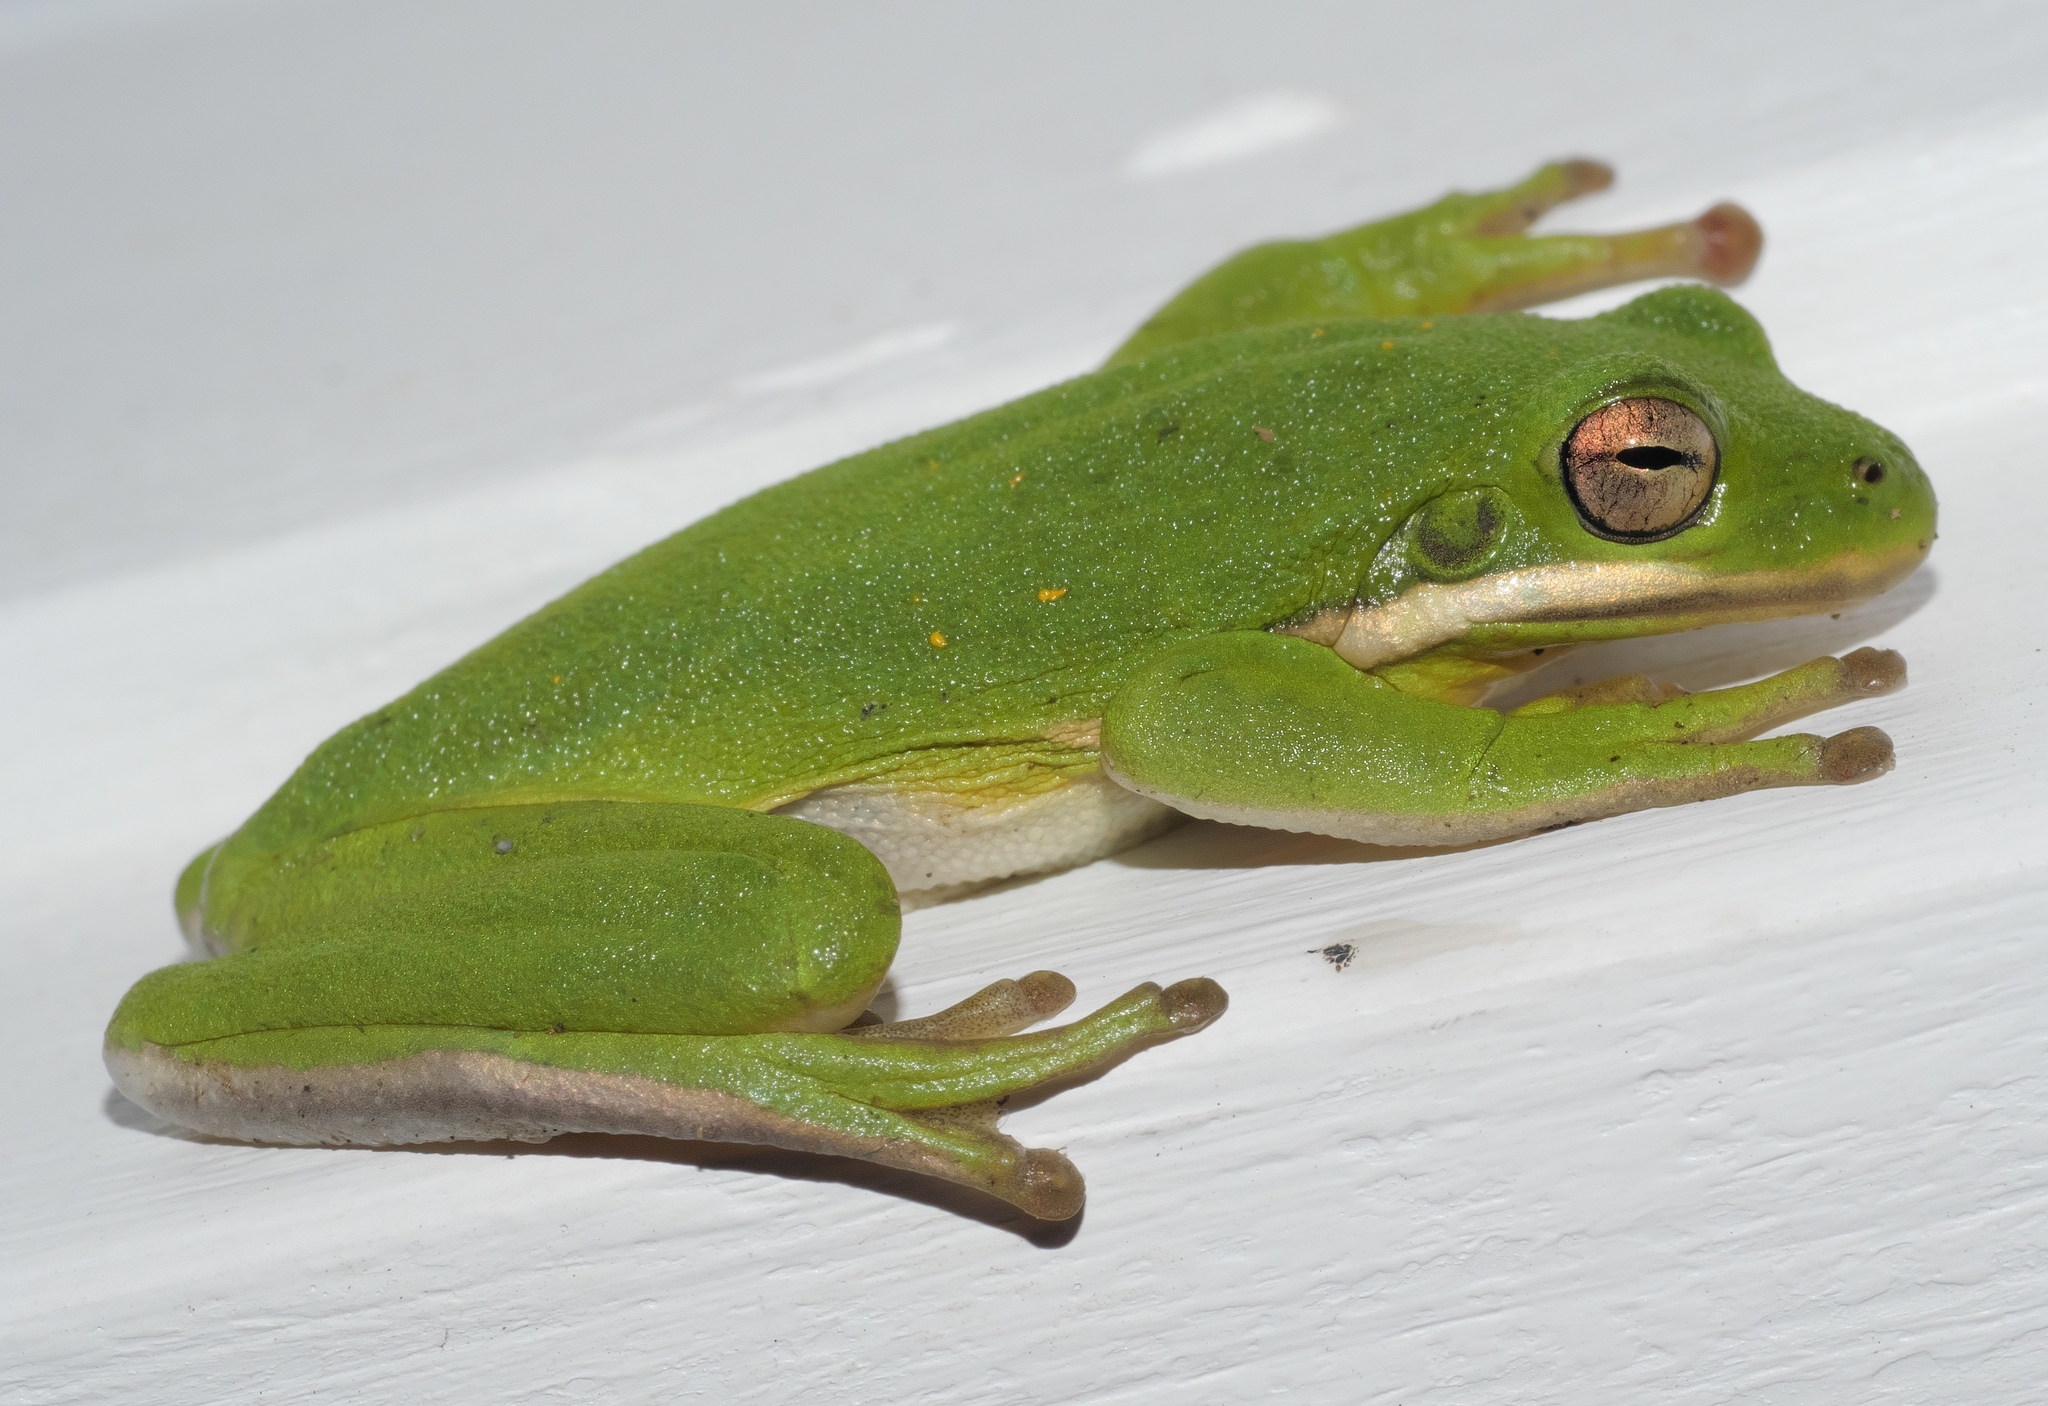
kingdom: Animalia
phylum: Chordata
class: Amphibia
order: Anura
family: Hylidae
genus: Dryophytes
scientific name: Dryophytes cinereus
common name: Green treefrog
